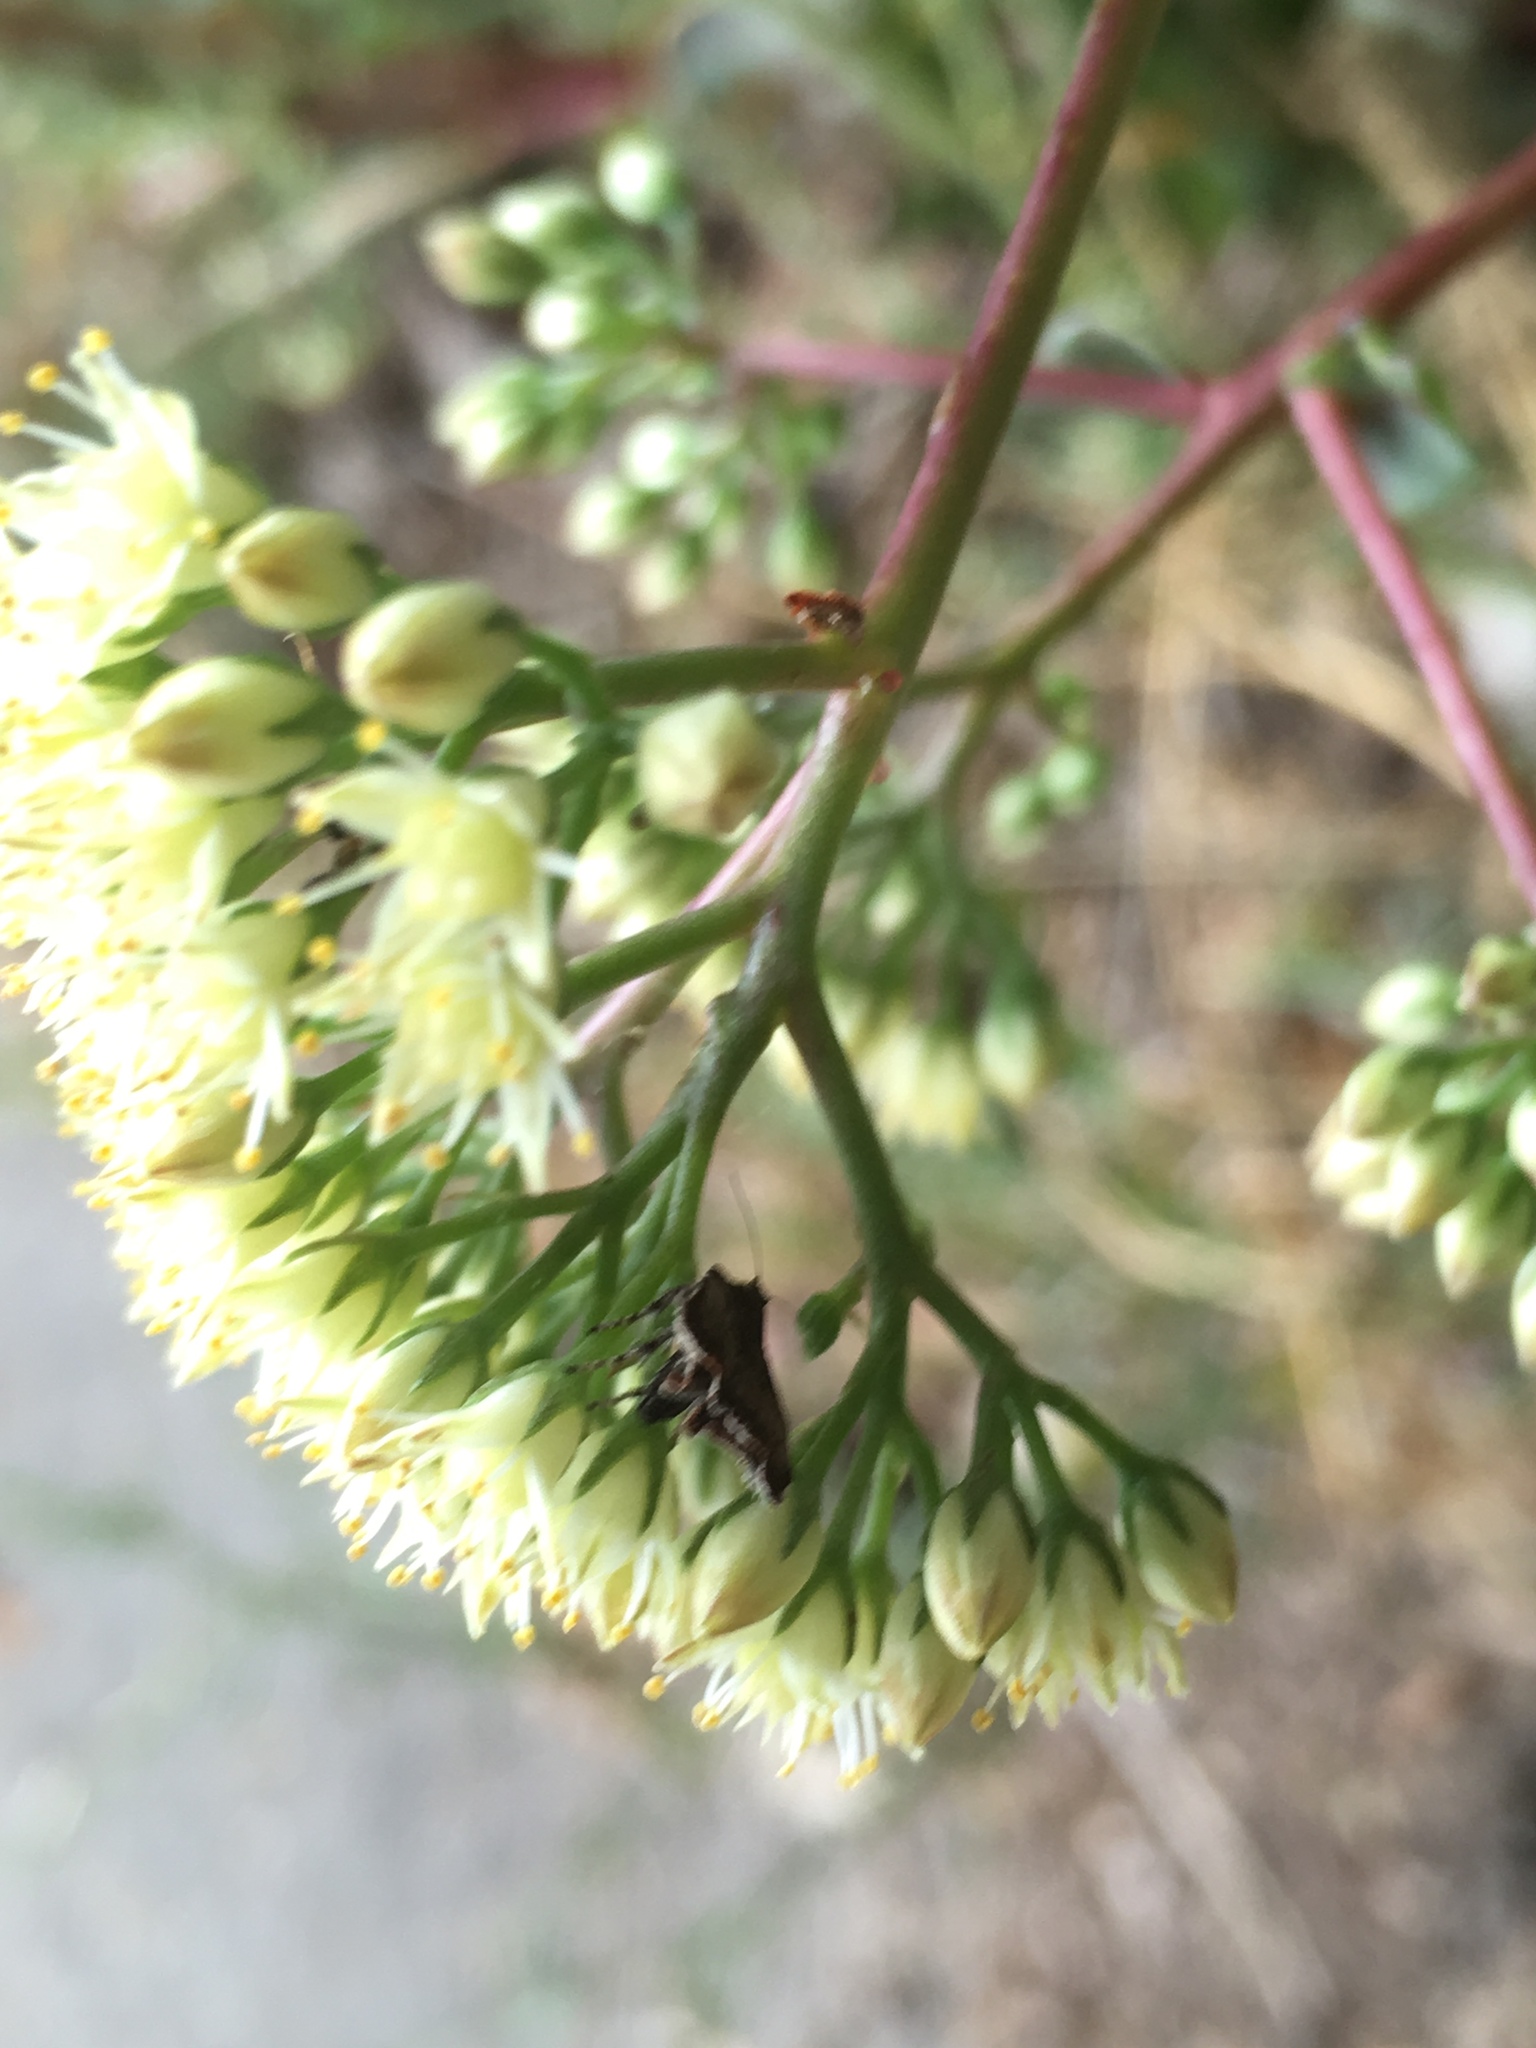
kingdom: Plantae
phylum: Tracheophyta
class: Magnoliopsida
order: Saxifragales
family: Crassulaceae
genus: Hylotelephium
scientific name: Hylotelephium maximum
